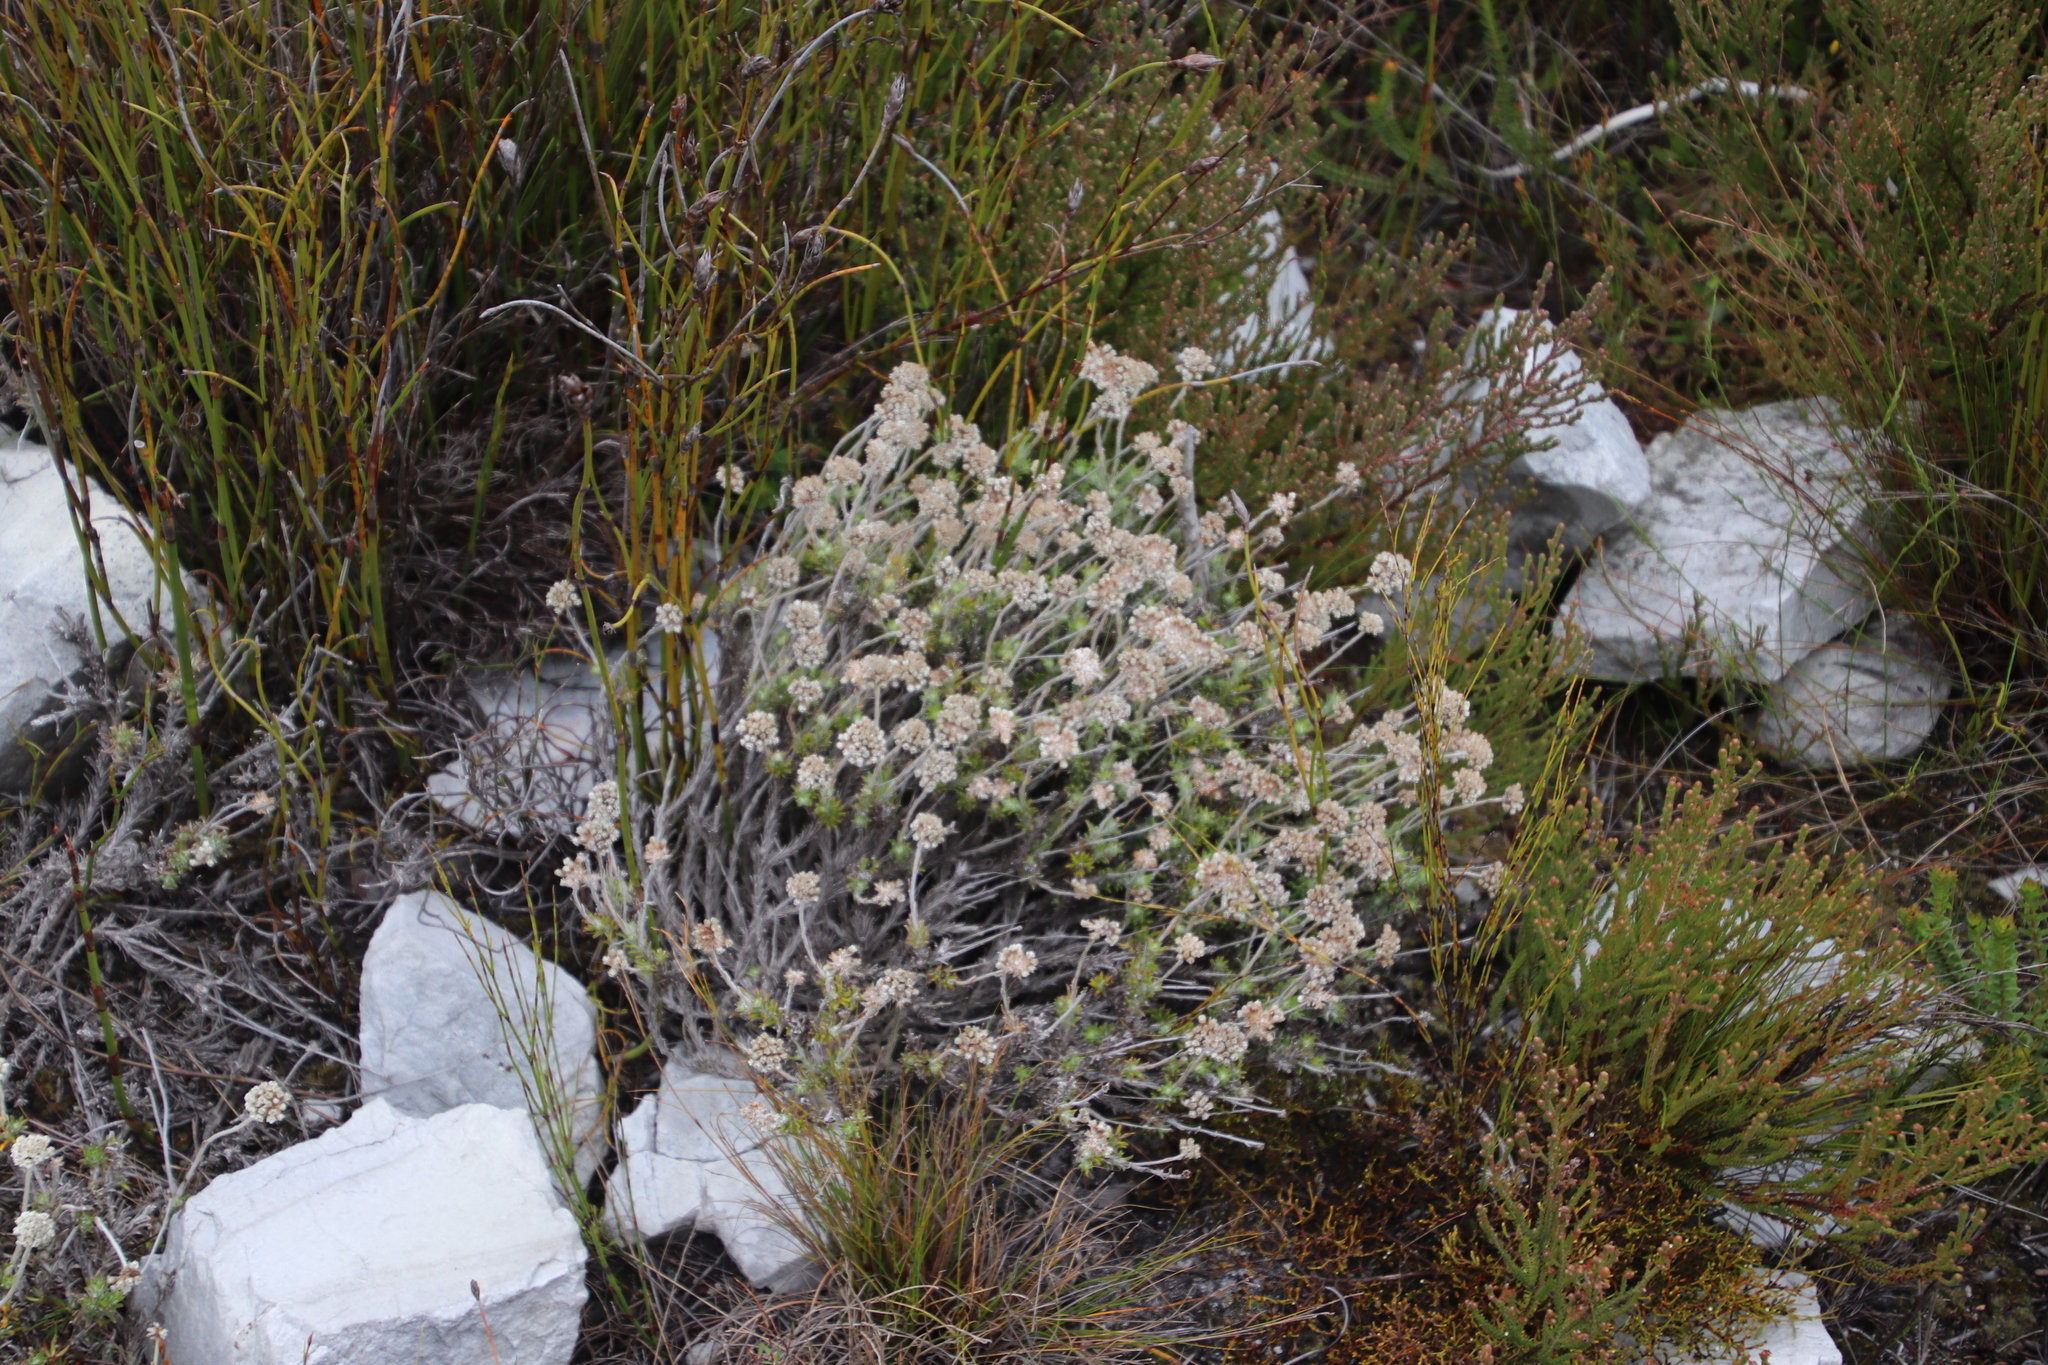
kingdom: Plantae
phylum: Tracheophyta
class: Magnoliopsida
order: Asterales
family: Asteraceae
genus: Anaxeton
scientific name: Anaxeton asperum
